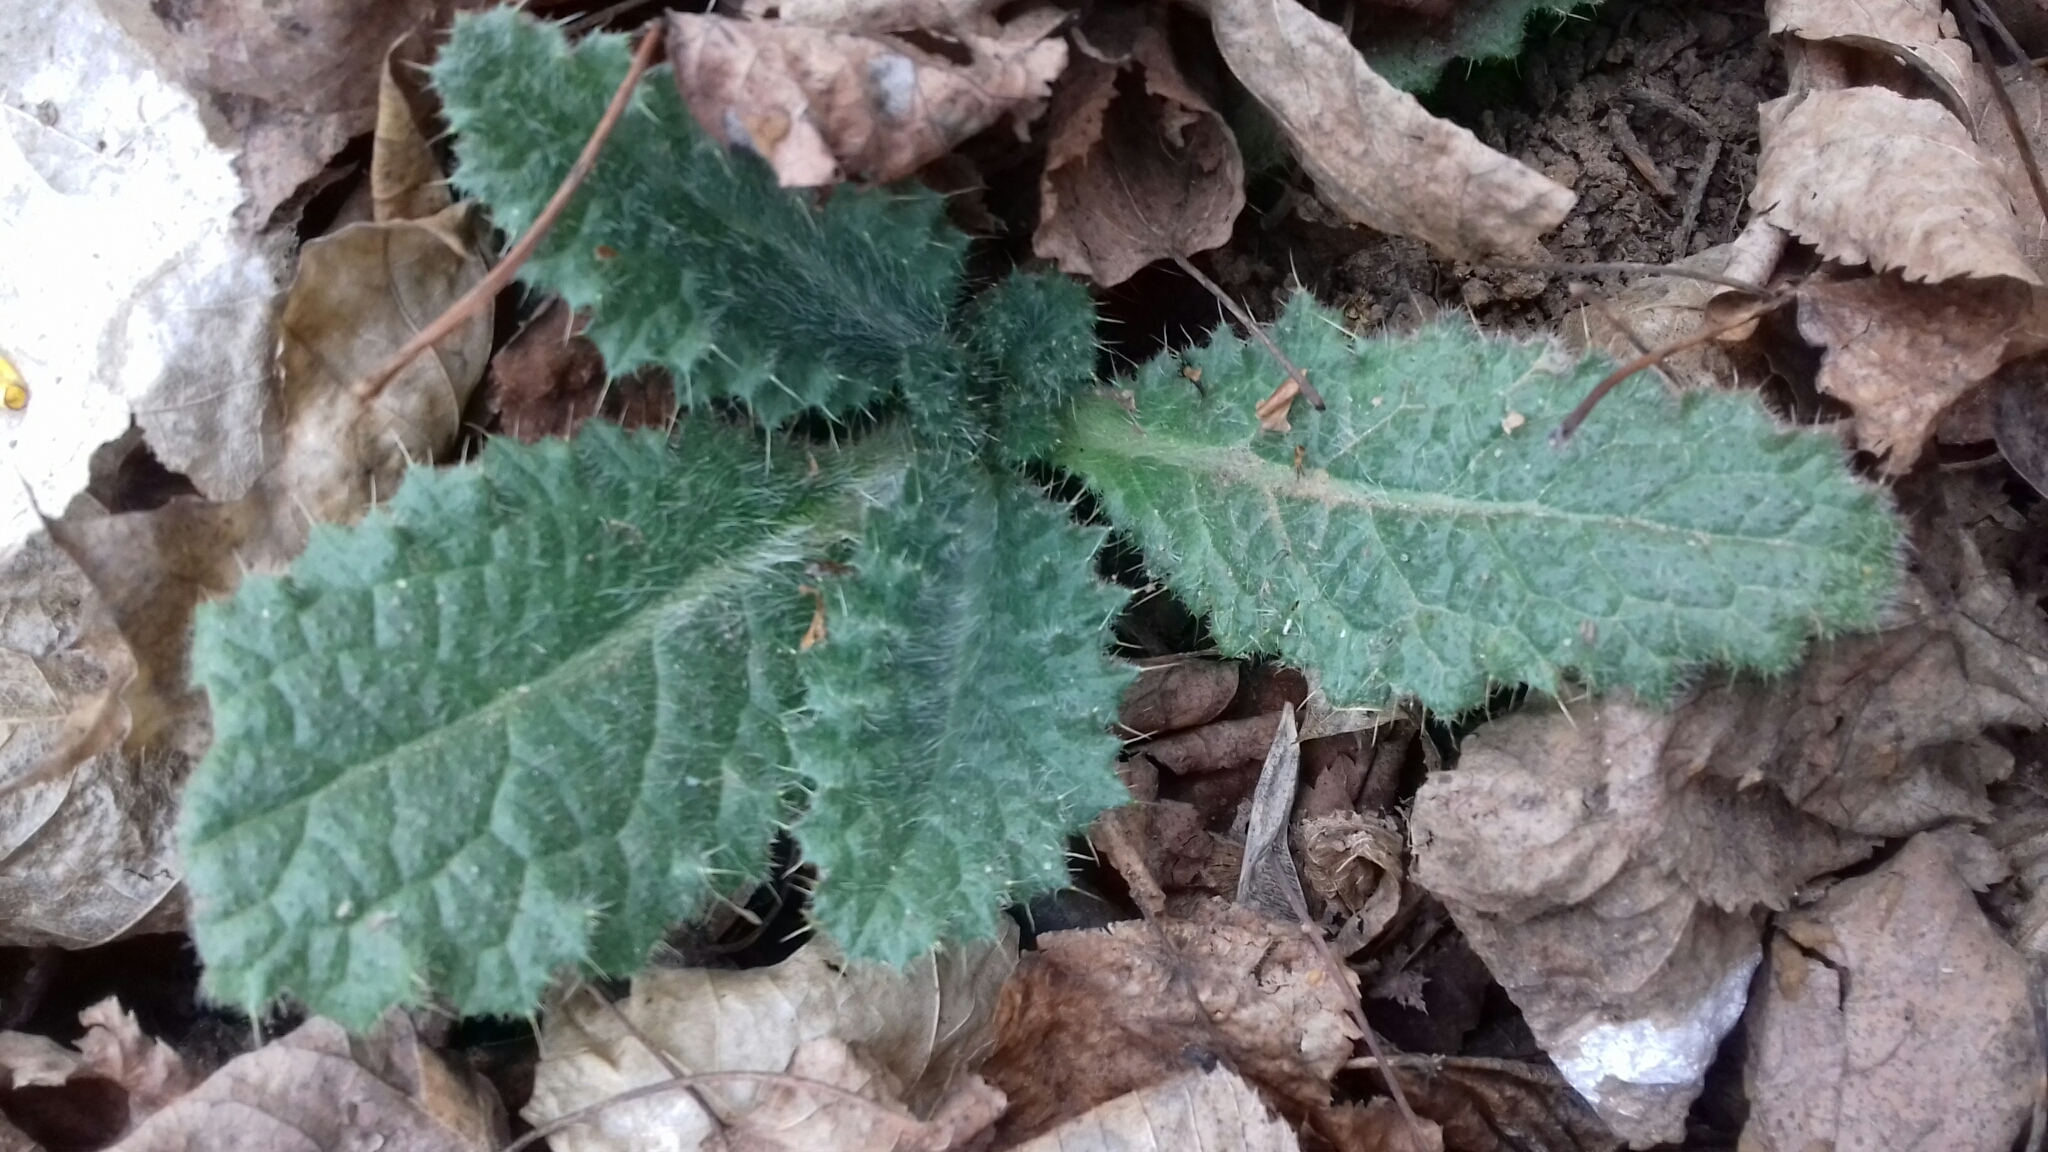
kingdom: Plantae
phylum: Tracheophyta
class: Magnoliopsida
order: Asterales
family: Asteraceae
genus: Cirsium
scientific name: Cirsium vulgare
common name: Bull thistle
